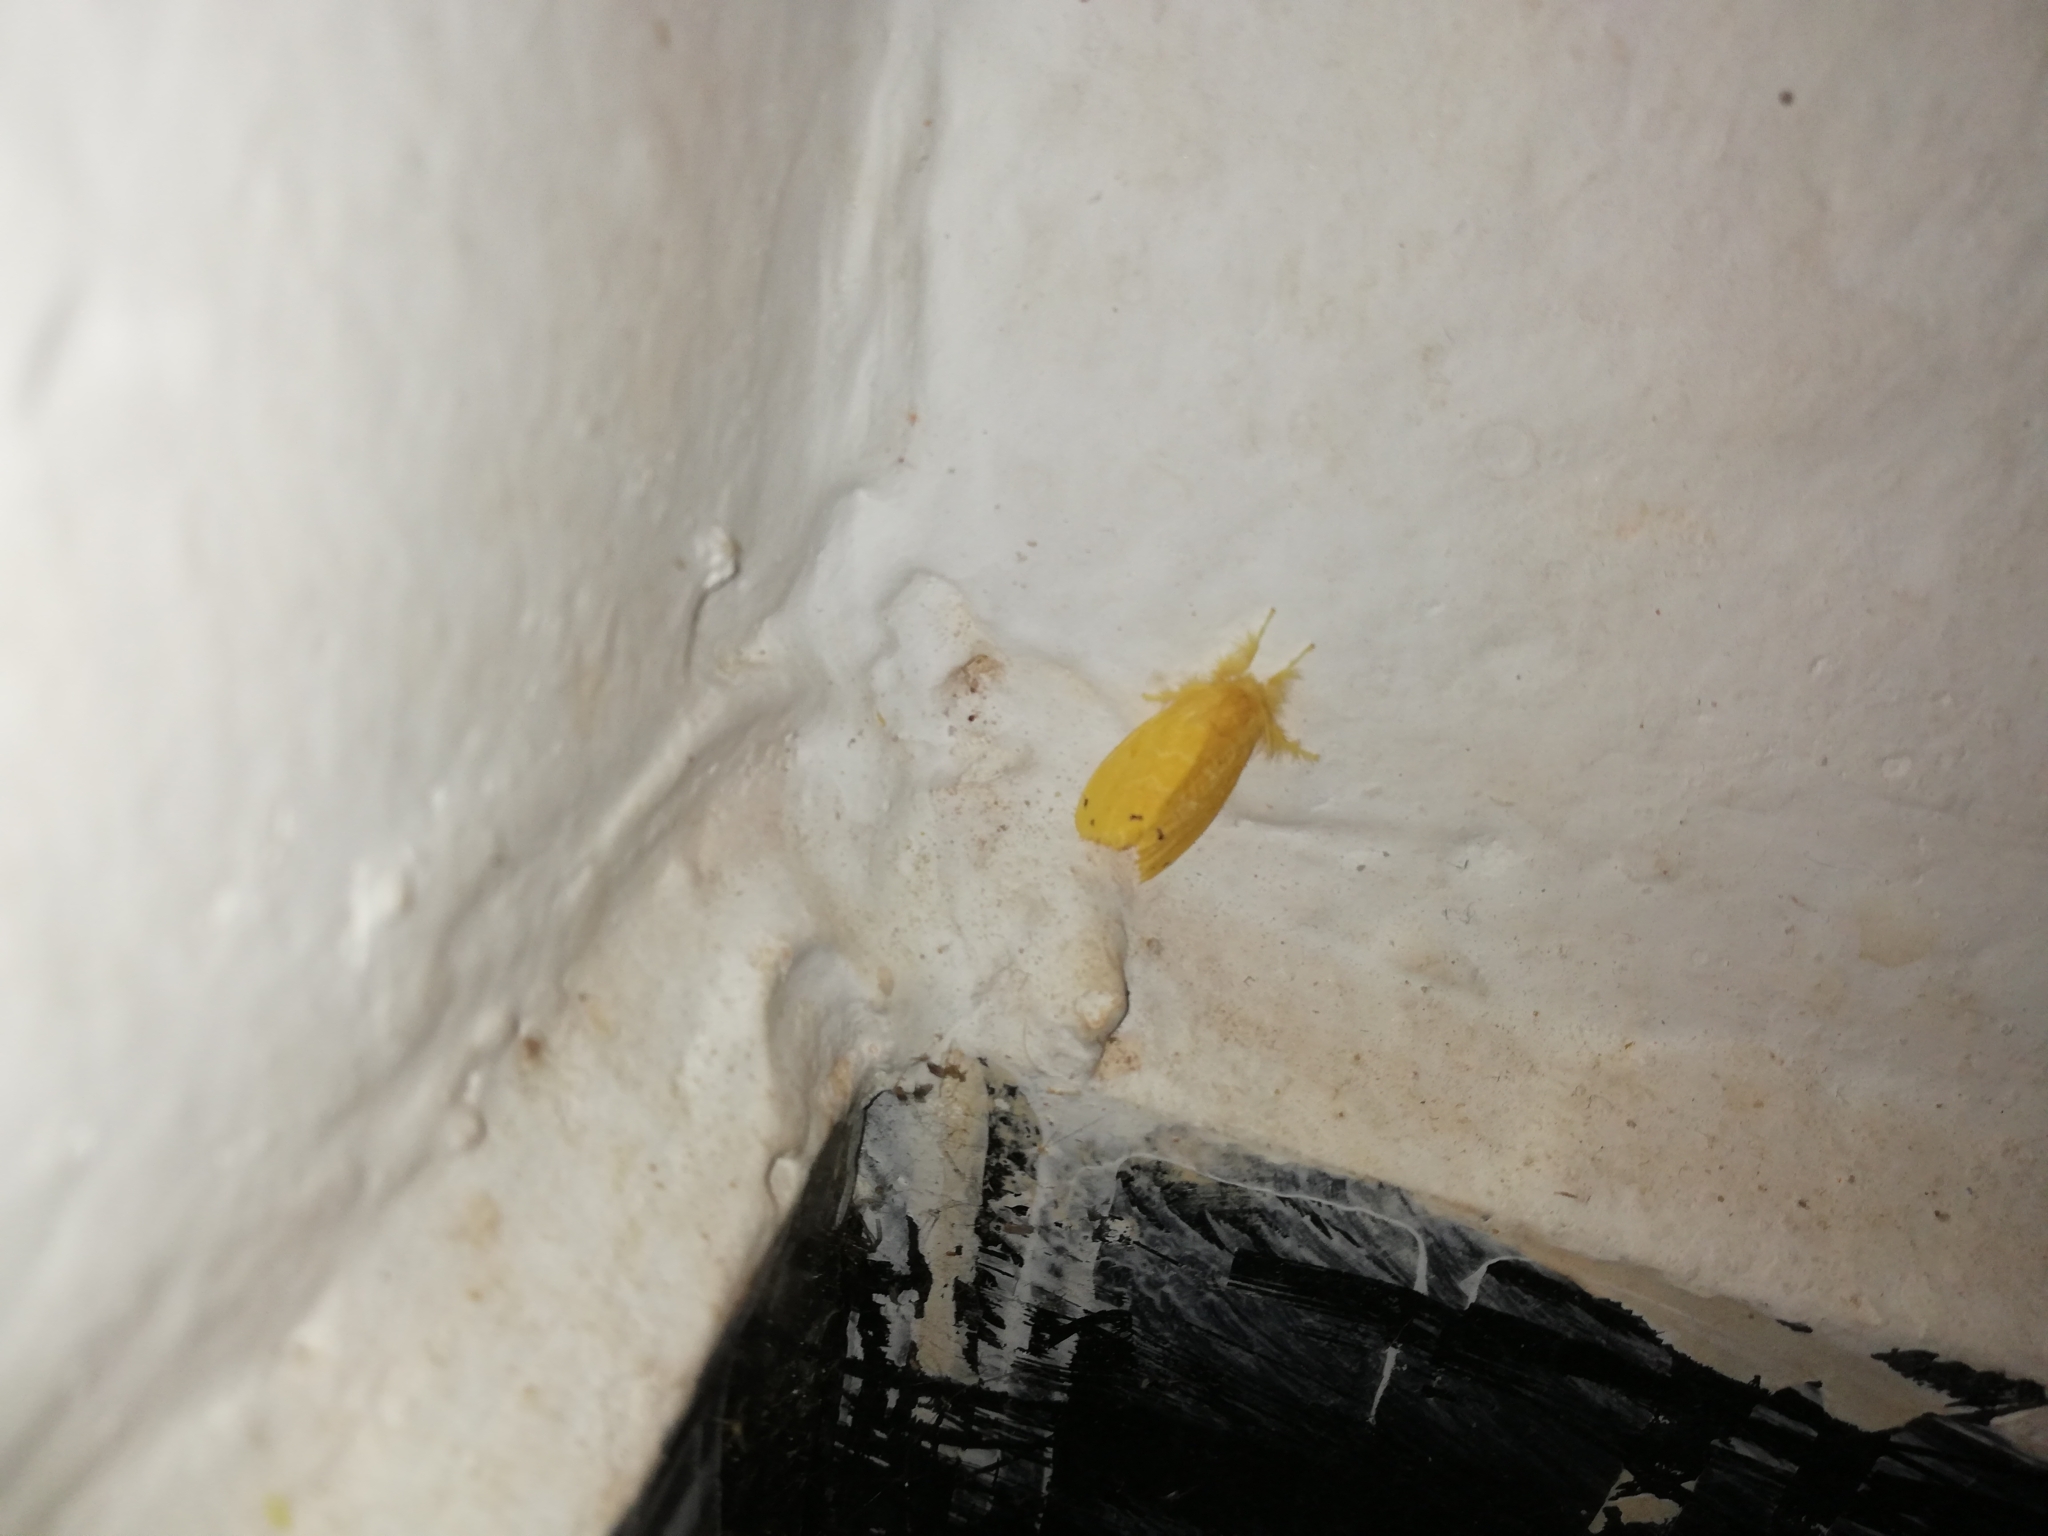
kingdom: Animalia
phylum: Arthropoda
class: Insecta
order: Lepidoptera
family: Erebidae
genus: Artaxa
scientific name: Artaxa guttata
